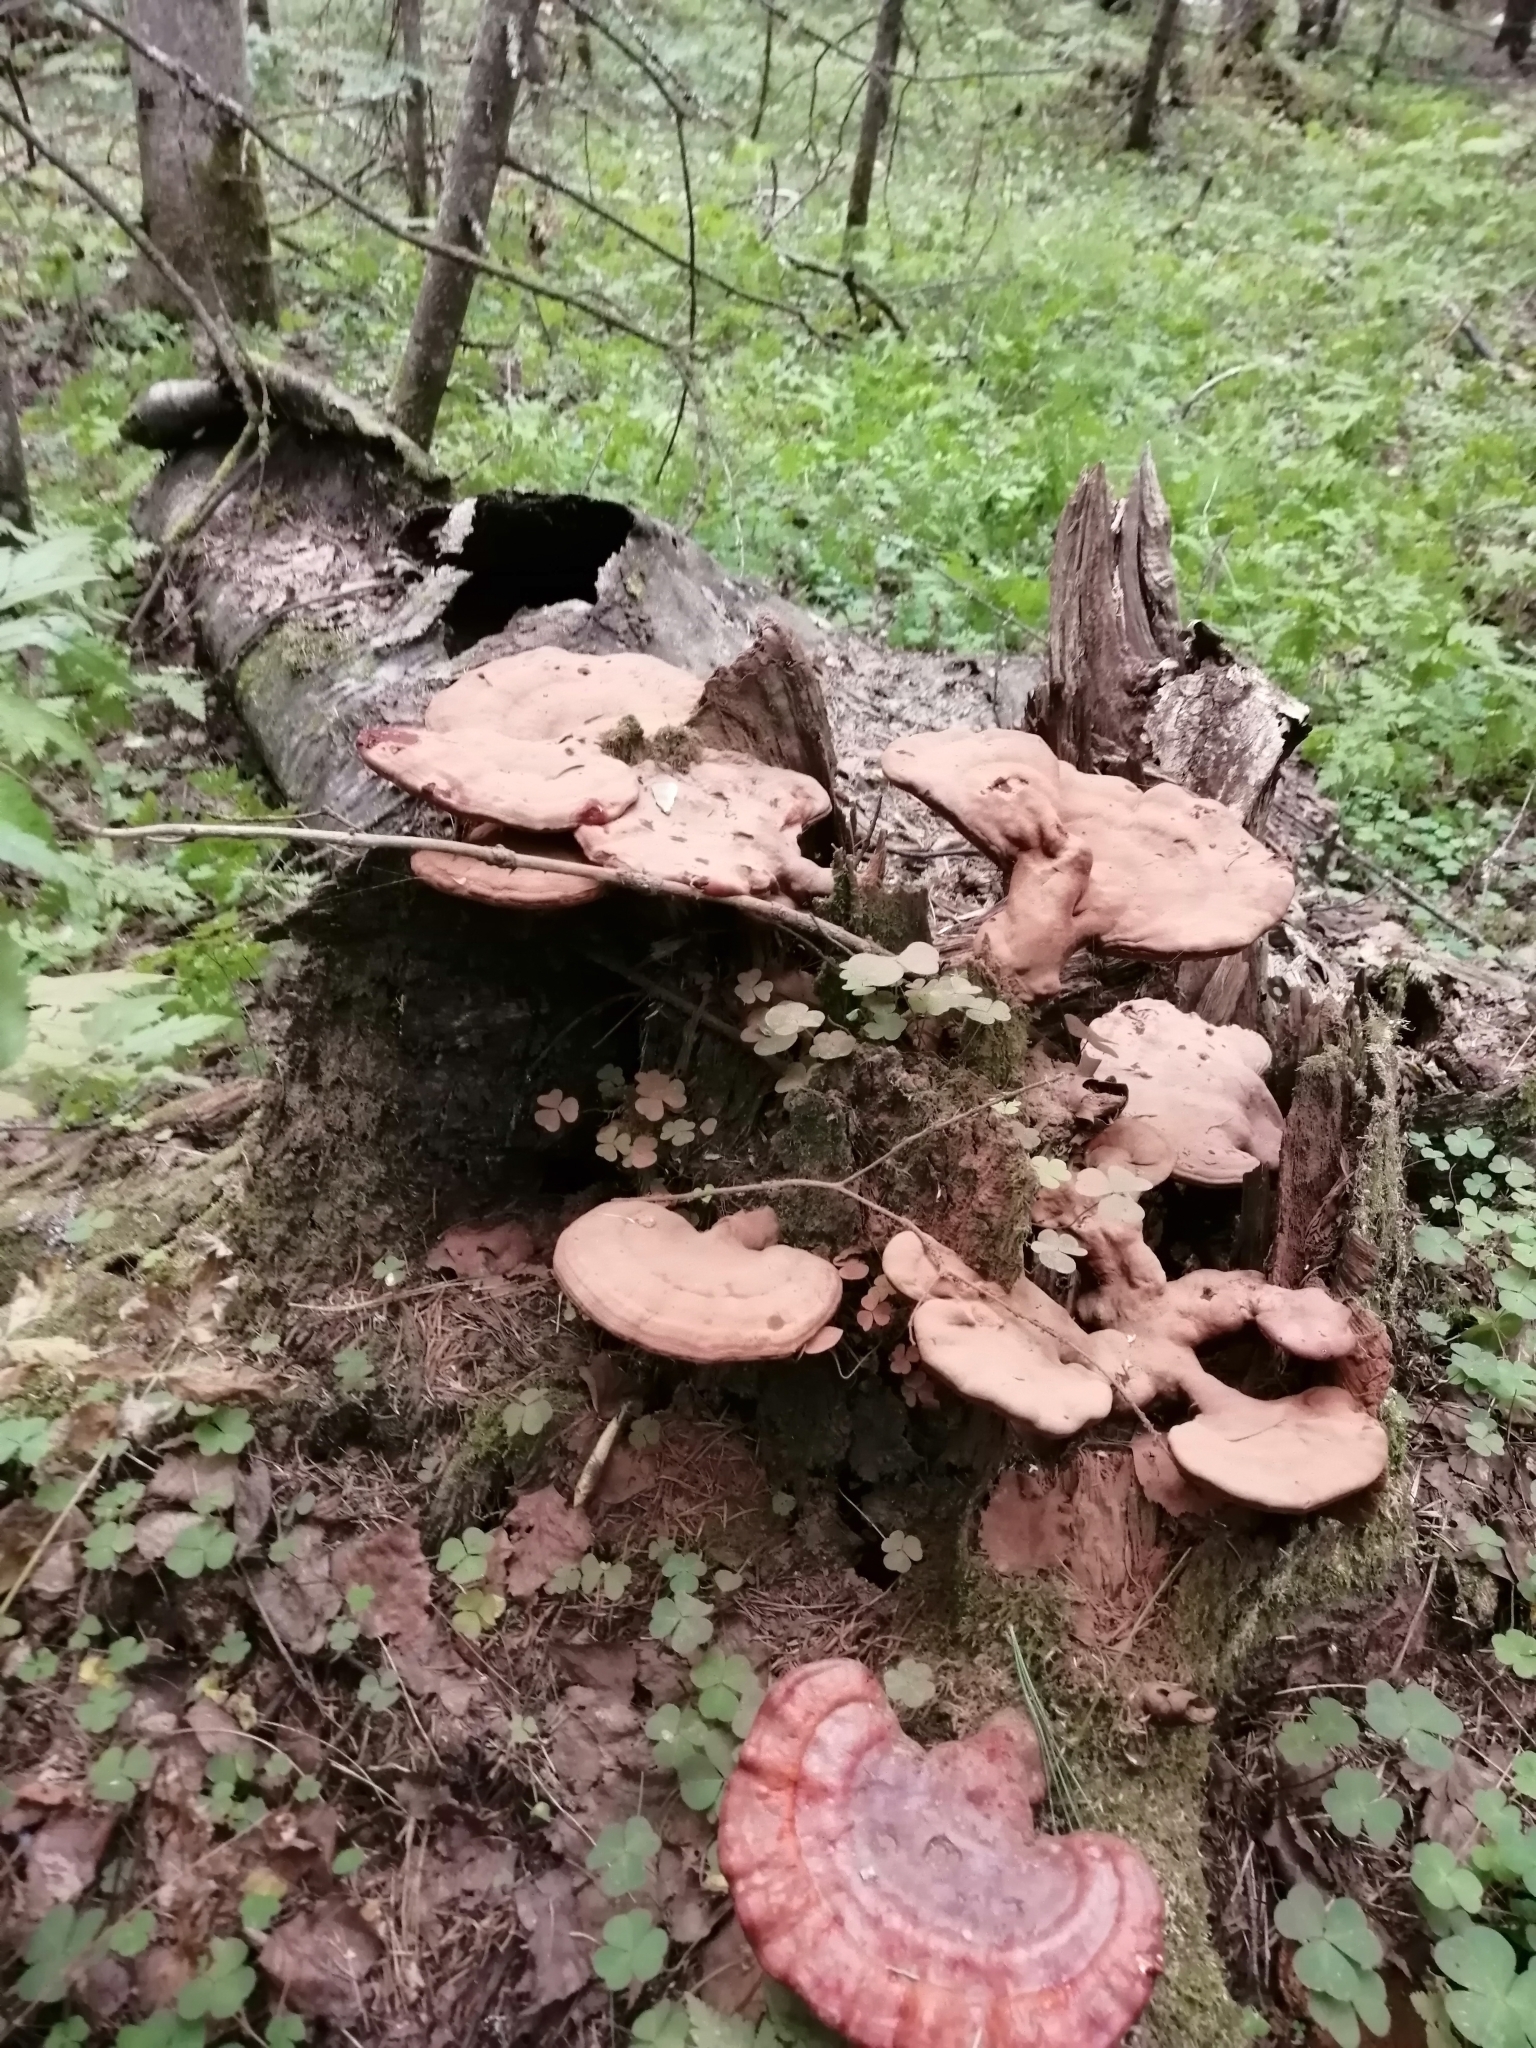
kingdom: Fungi
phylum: Basidiomycota
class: Agaricomycetes
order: Polyporales
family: Polyporaceae
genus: Ganoderma
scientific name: Ganoderma lucidum
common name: Lacquered bracket
